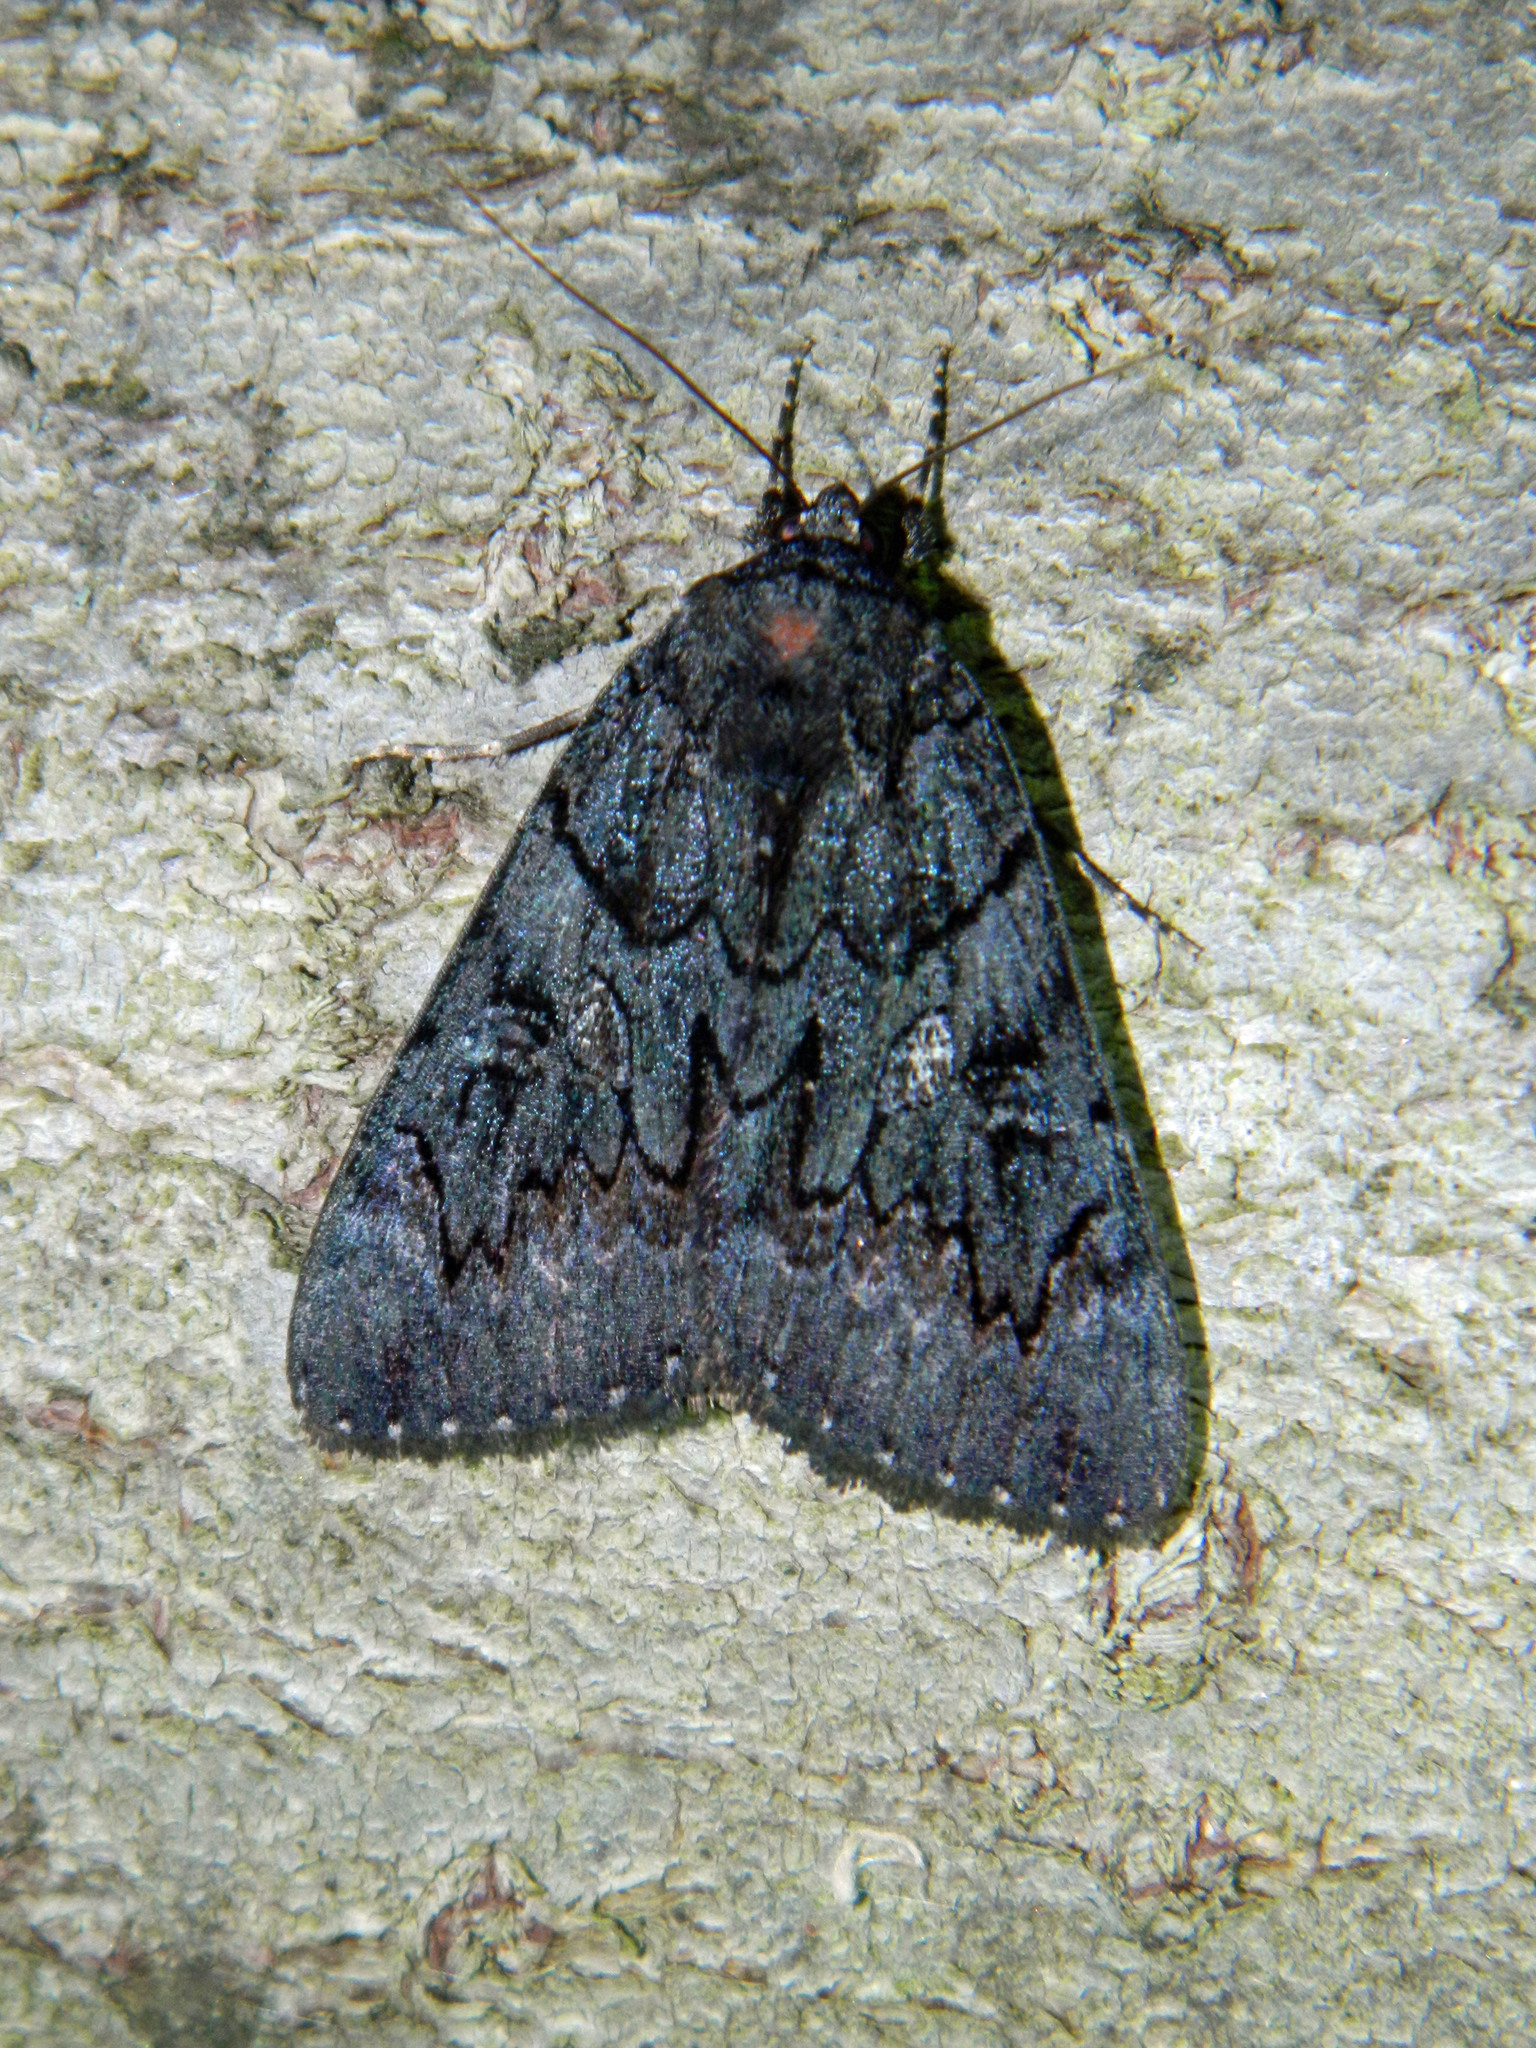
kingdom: Animalia
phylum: Arthropoda
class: Insecta
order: Lepidoptera
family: Erebidae
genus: Catocala
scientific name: Catocala antinympha
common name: Sweetfern underwing
